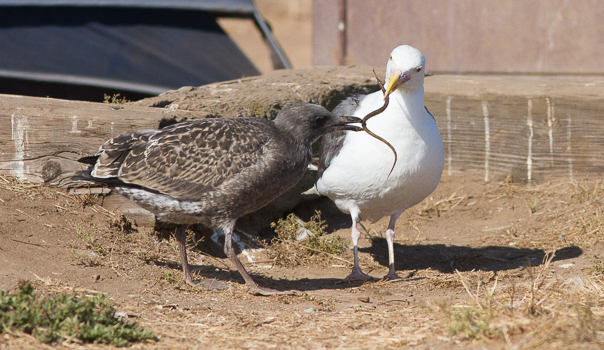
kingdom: Animalia
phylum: Chordata
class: Aves
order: Charadriiformes
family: Laridae
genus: Larus
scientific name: Larus occidentalis
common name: Western gull
